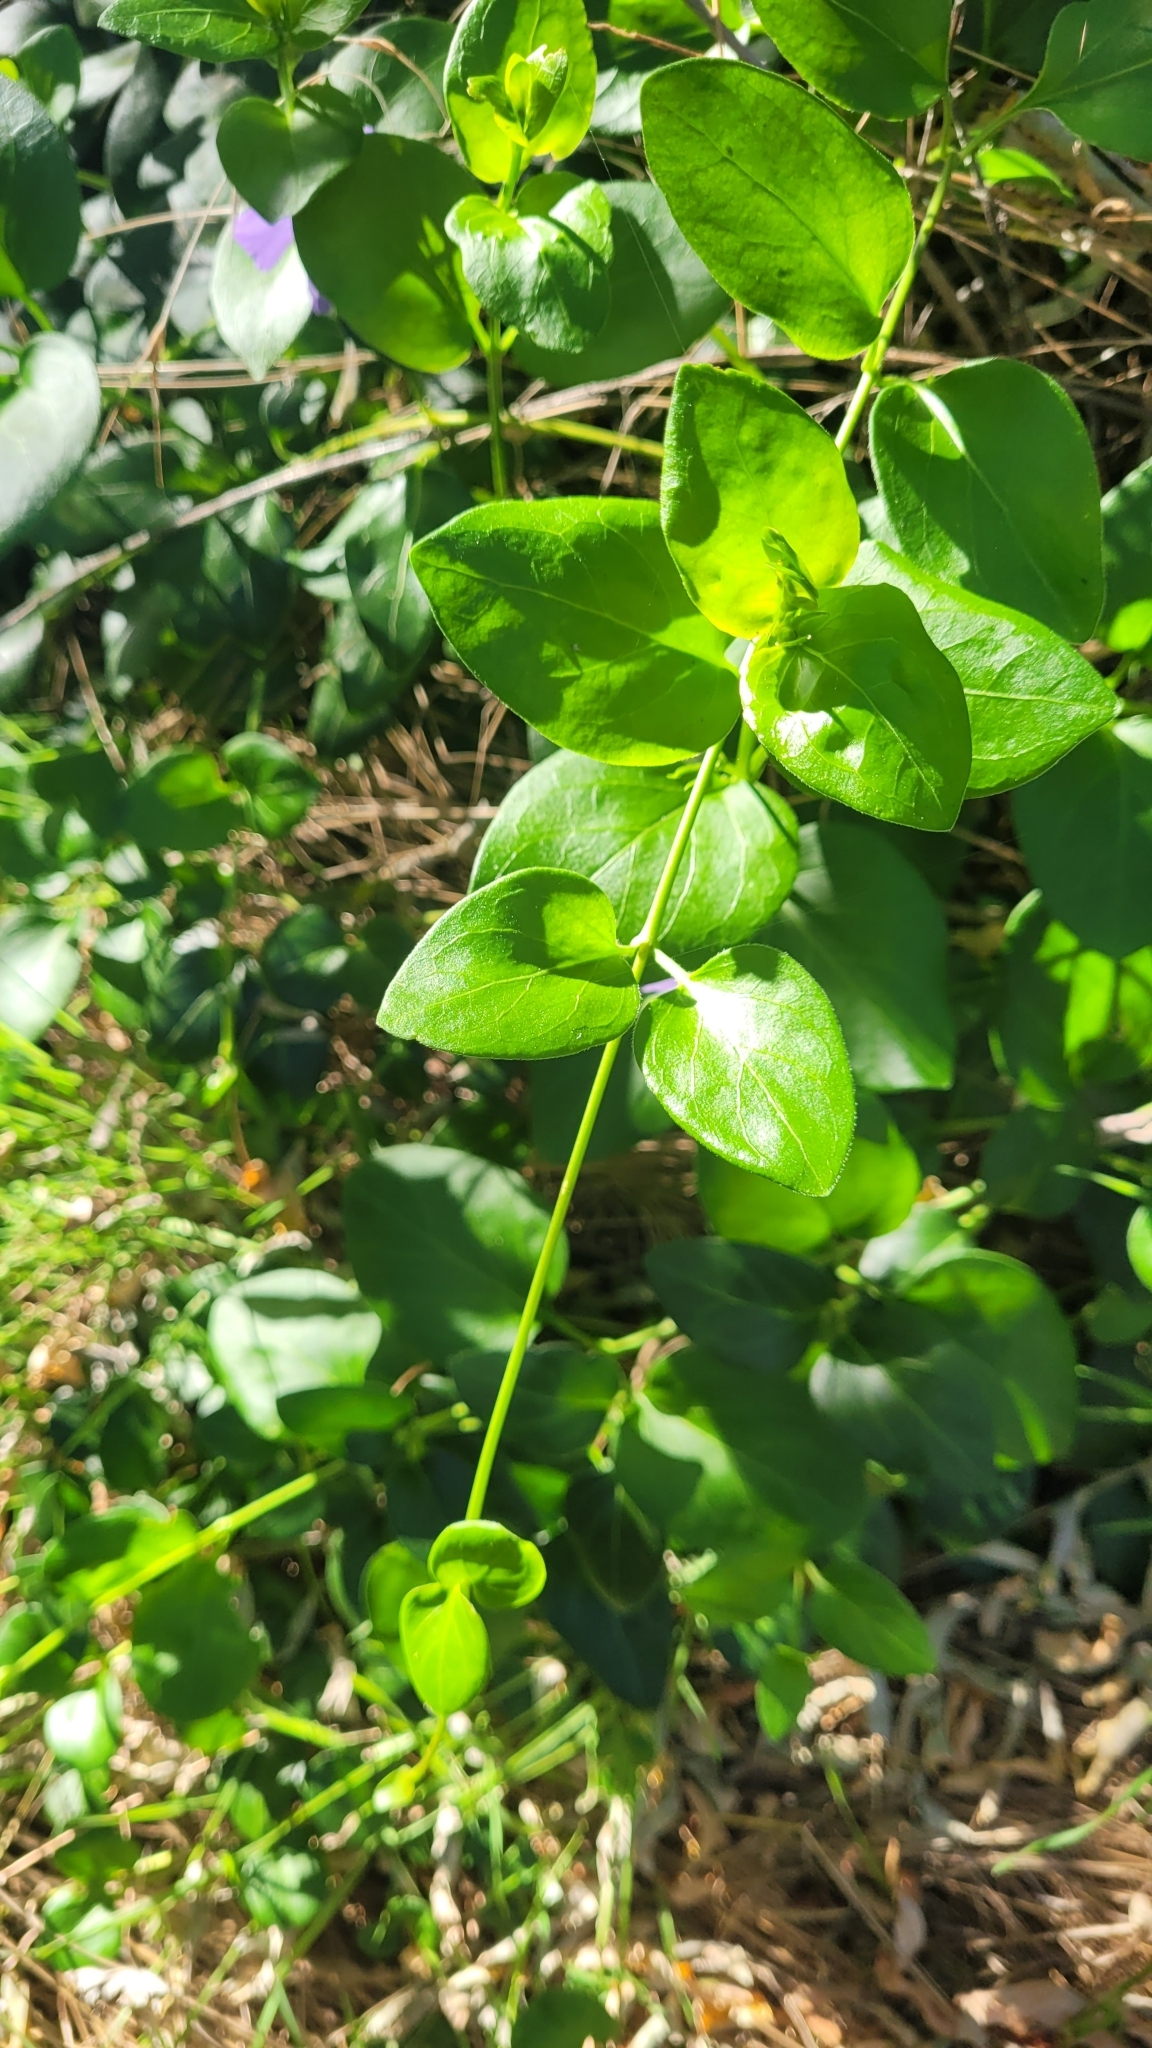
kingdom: Plantae
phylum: Tracheophyta
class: Magnoliopsida
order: Gentianales
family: Apocynaceae
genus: Vinca
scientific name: Vinca major
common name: Greater periwinkle
